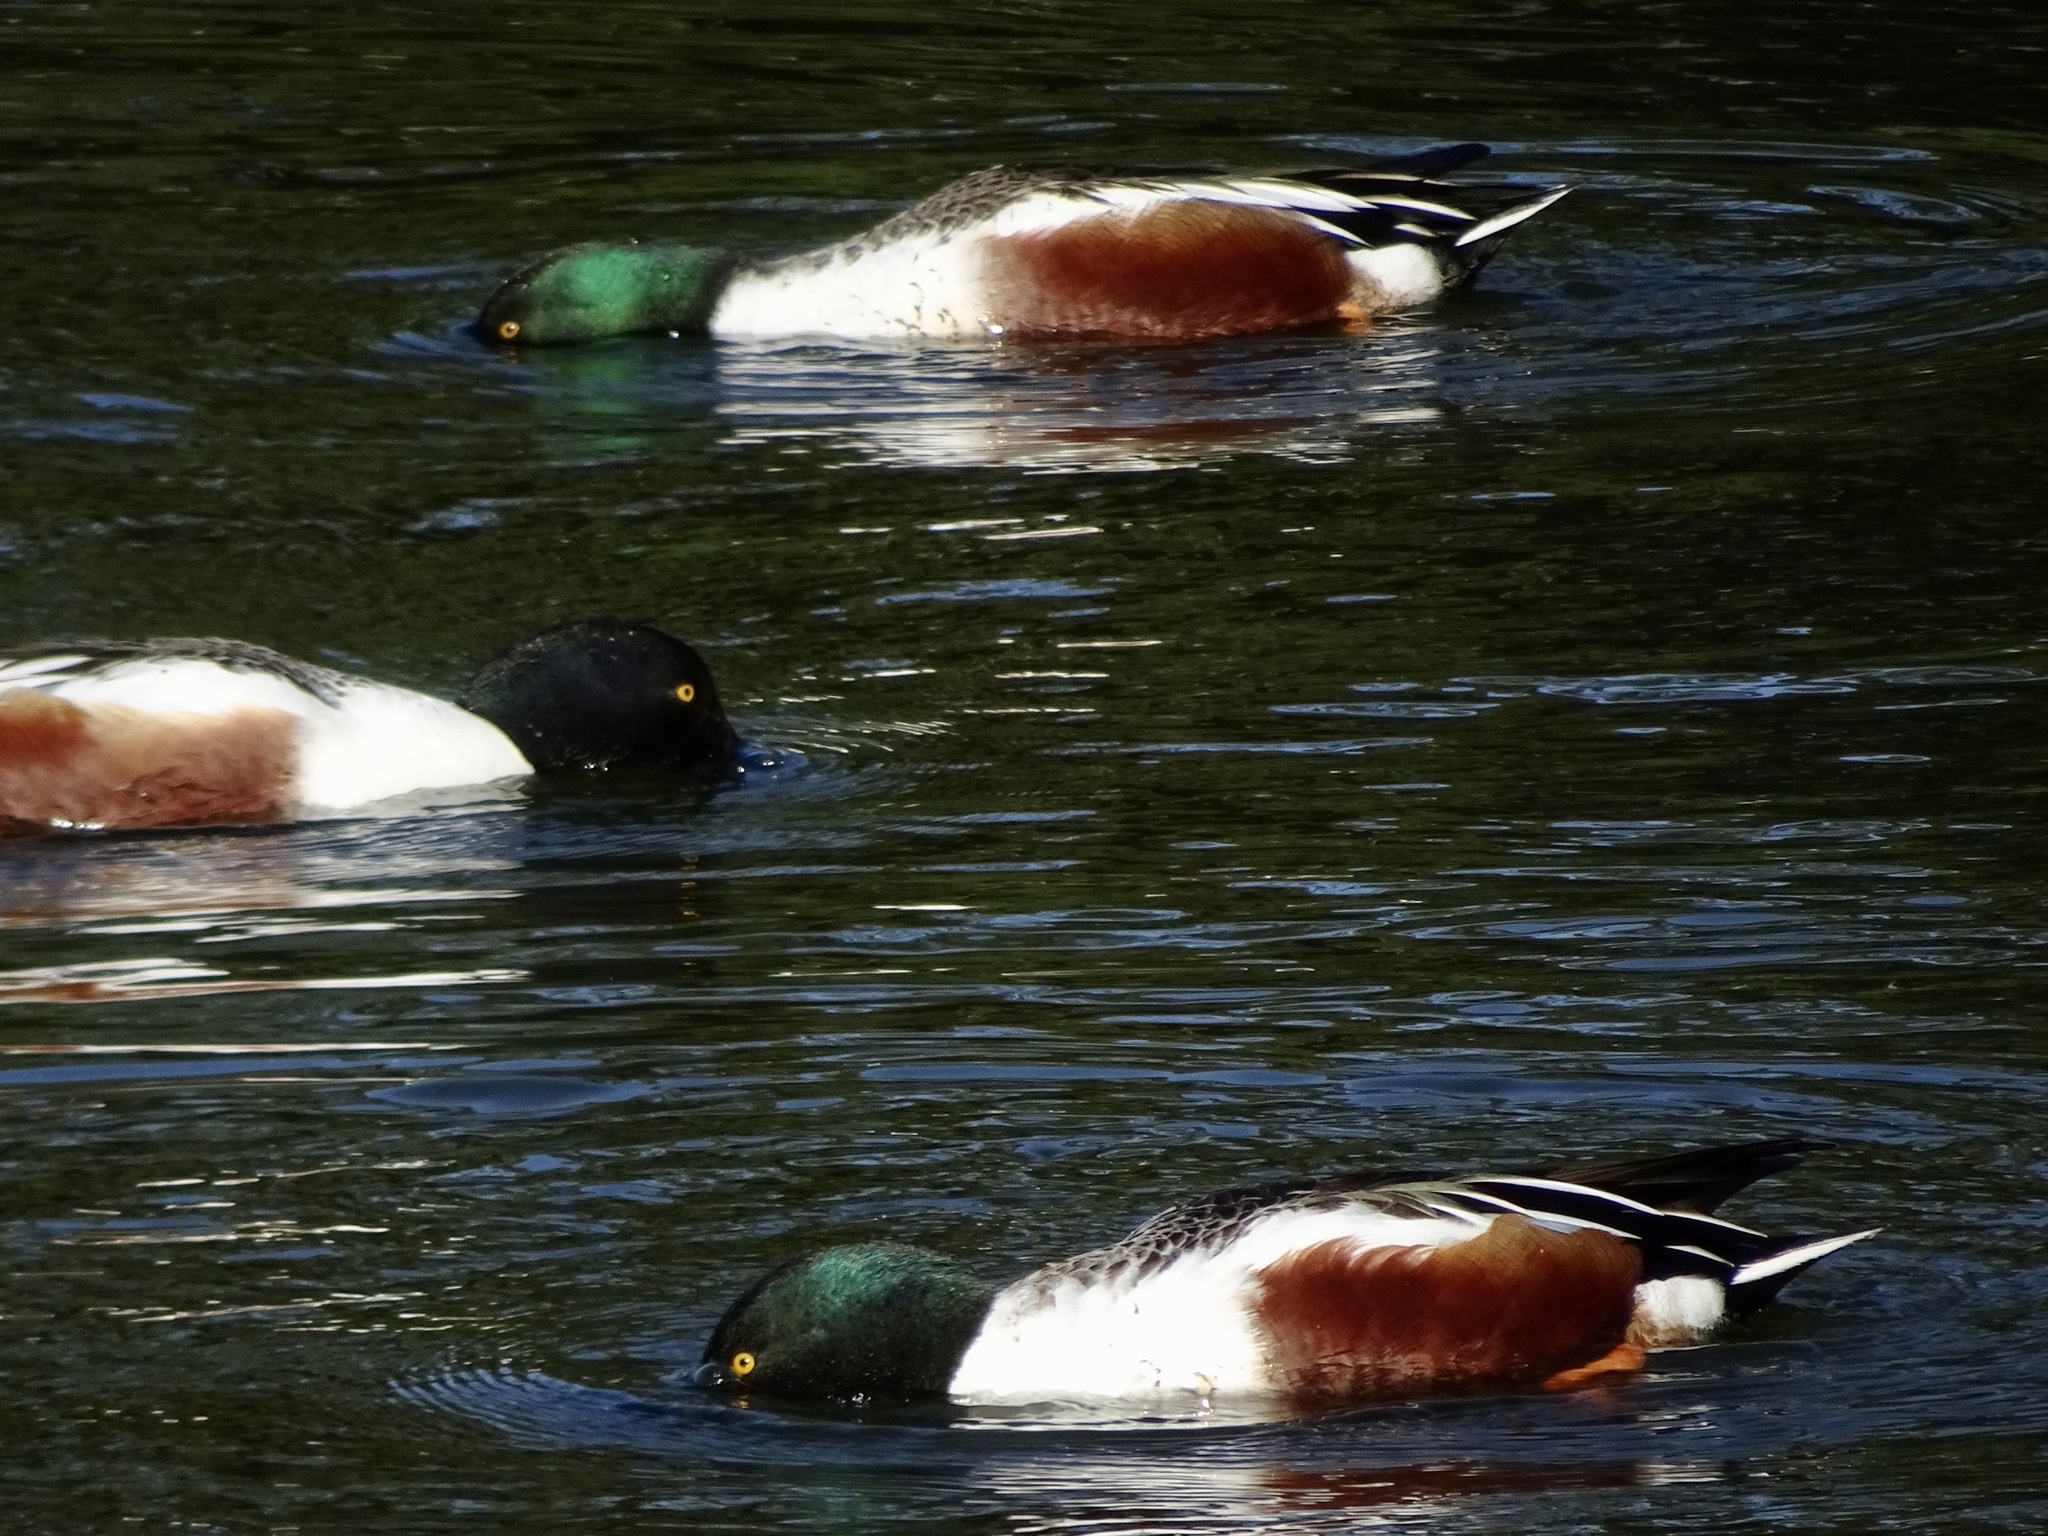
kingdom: Animalia
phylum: Chordata
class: Aves
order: Anseriformes
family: Anatidae
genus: Spatula
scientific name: Spatula clypeata
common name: Northern shoveler
